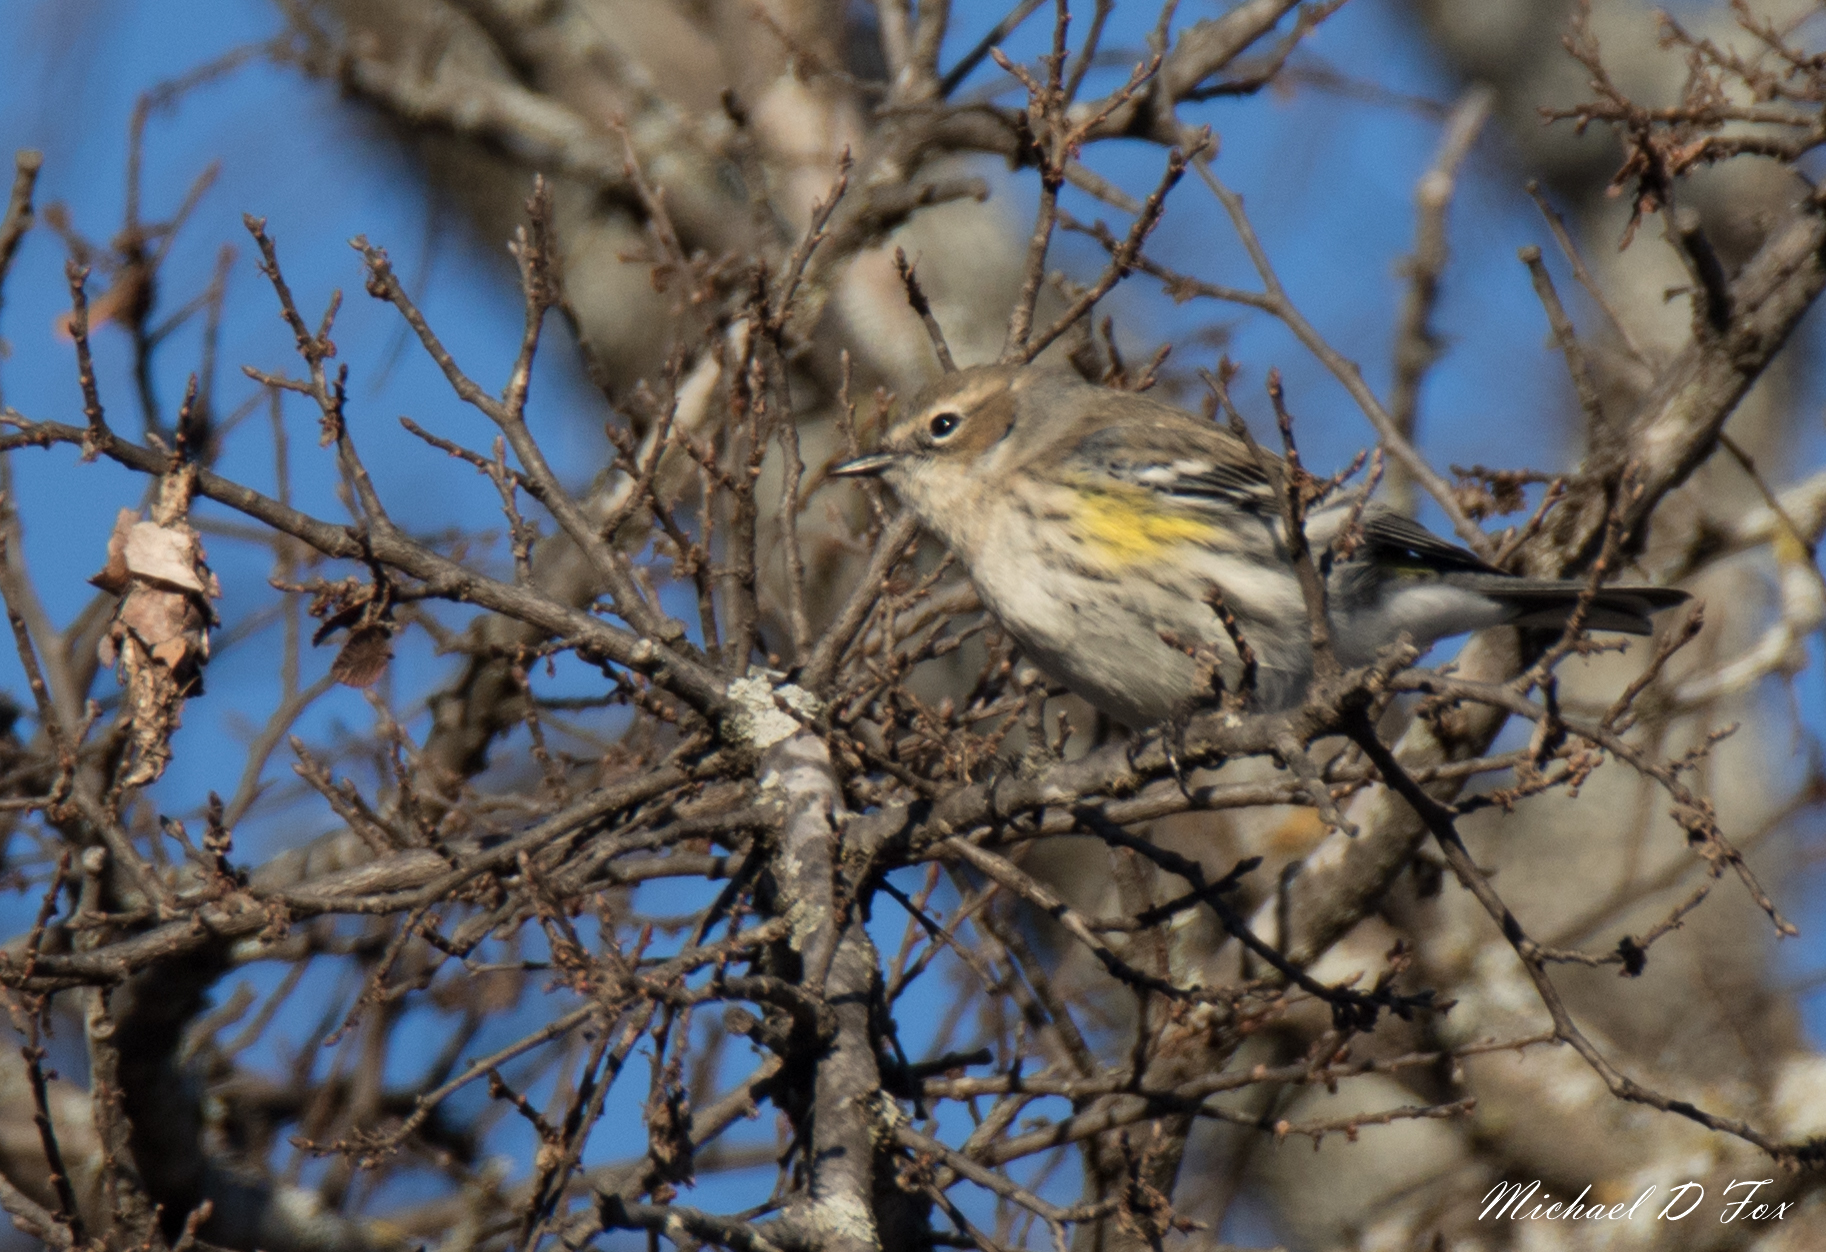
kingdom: Animalia
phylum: Chordata
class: Aves
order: Passeriformes
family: Parulidae
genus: Setophaga
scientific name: Setophaga coronata
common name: Myrtle warbler
